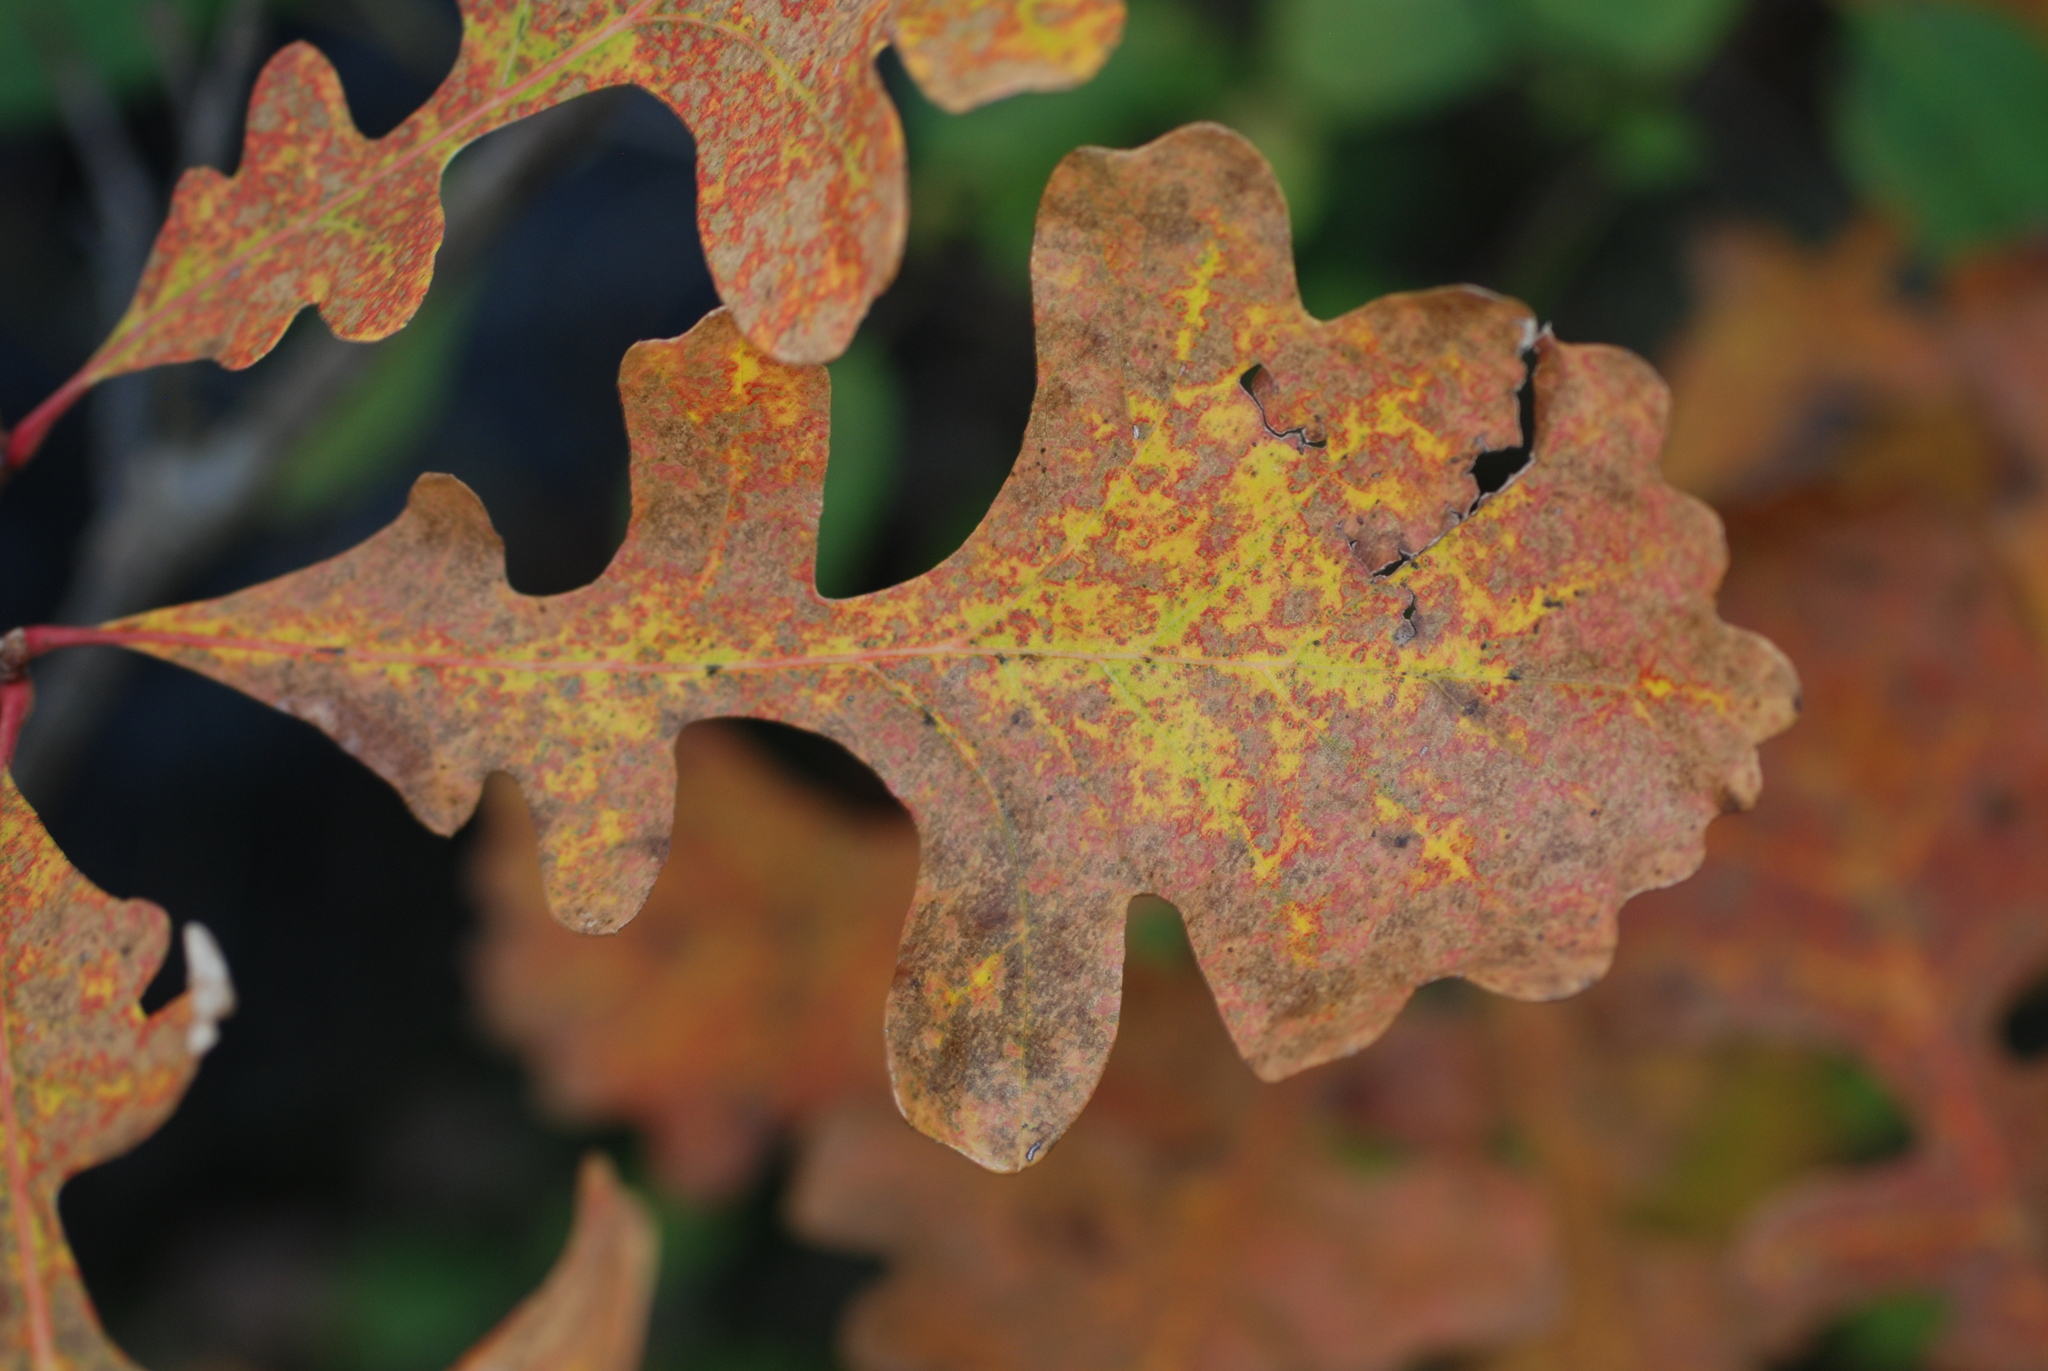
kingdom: Plantae
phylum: Tracheophyta
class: Magnoliopsida
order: Fagales
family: Fagaceae
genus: Quercus
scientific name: Quercus macrocarpa
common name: Bur oak
